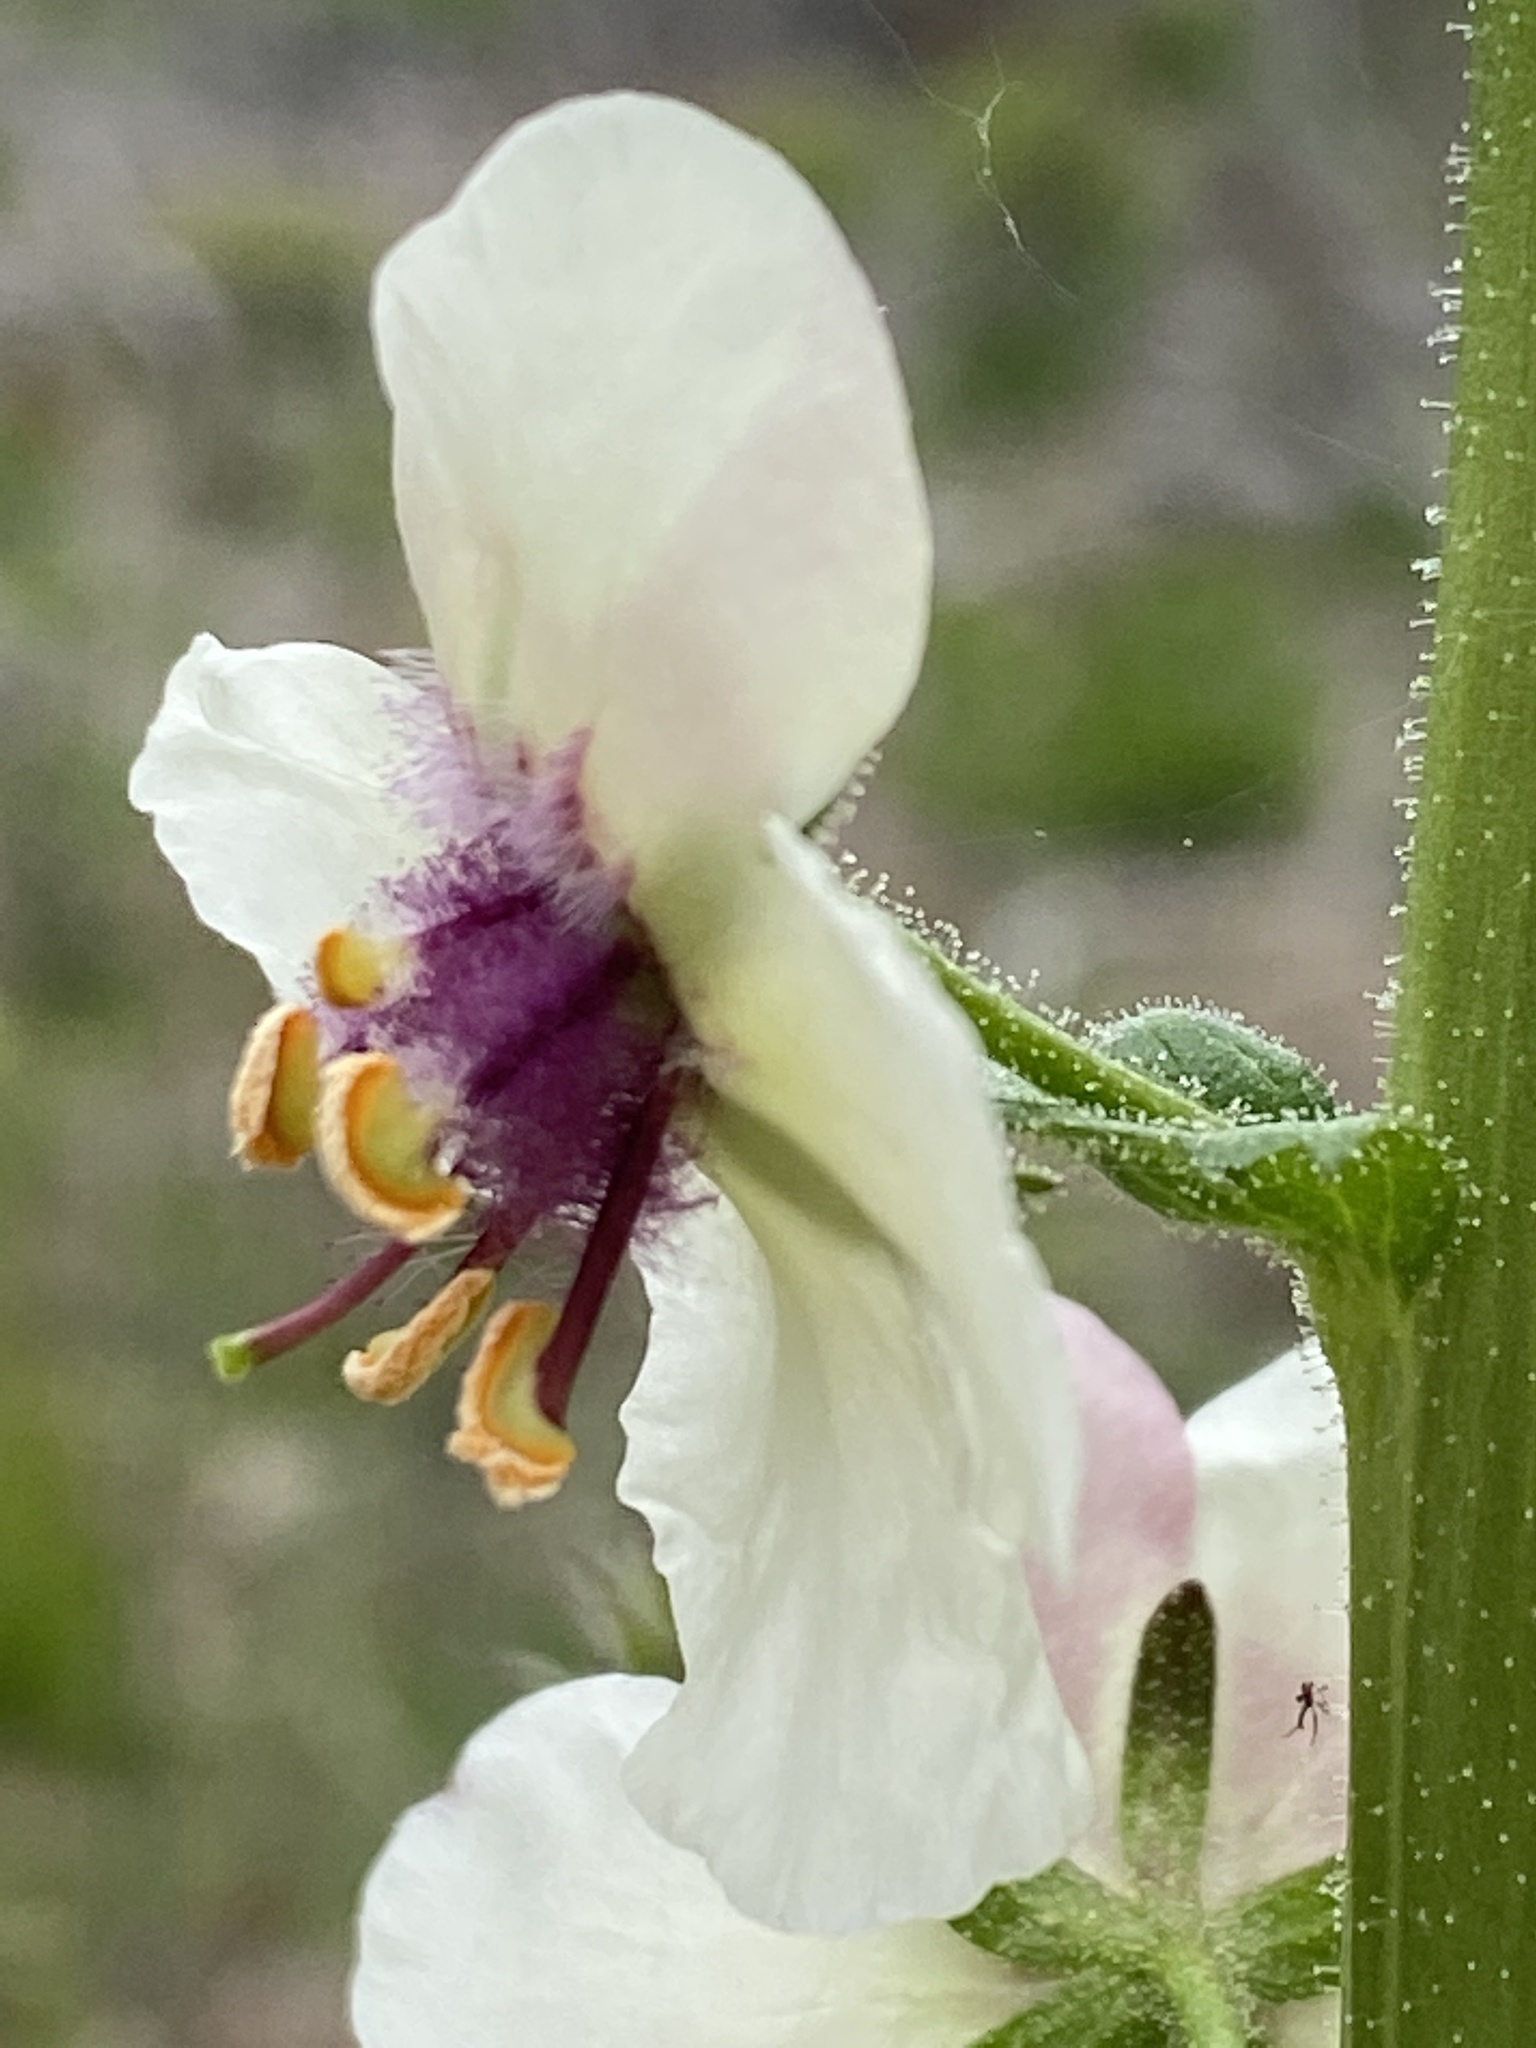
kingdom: Plantae
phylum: Tracheophyta
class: Magnoliopsida
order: Lamiales
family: Scrophulariaceae
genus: Verbascum
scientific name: Verbascum blattaria
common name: Moth mullein
